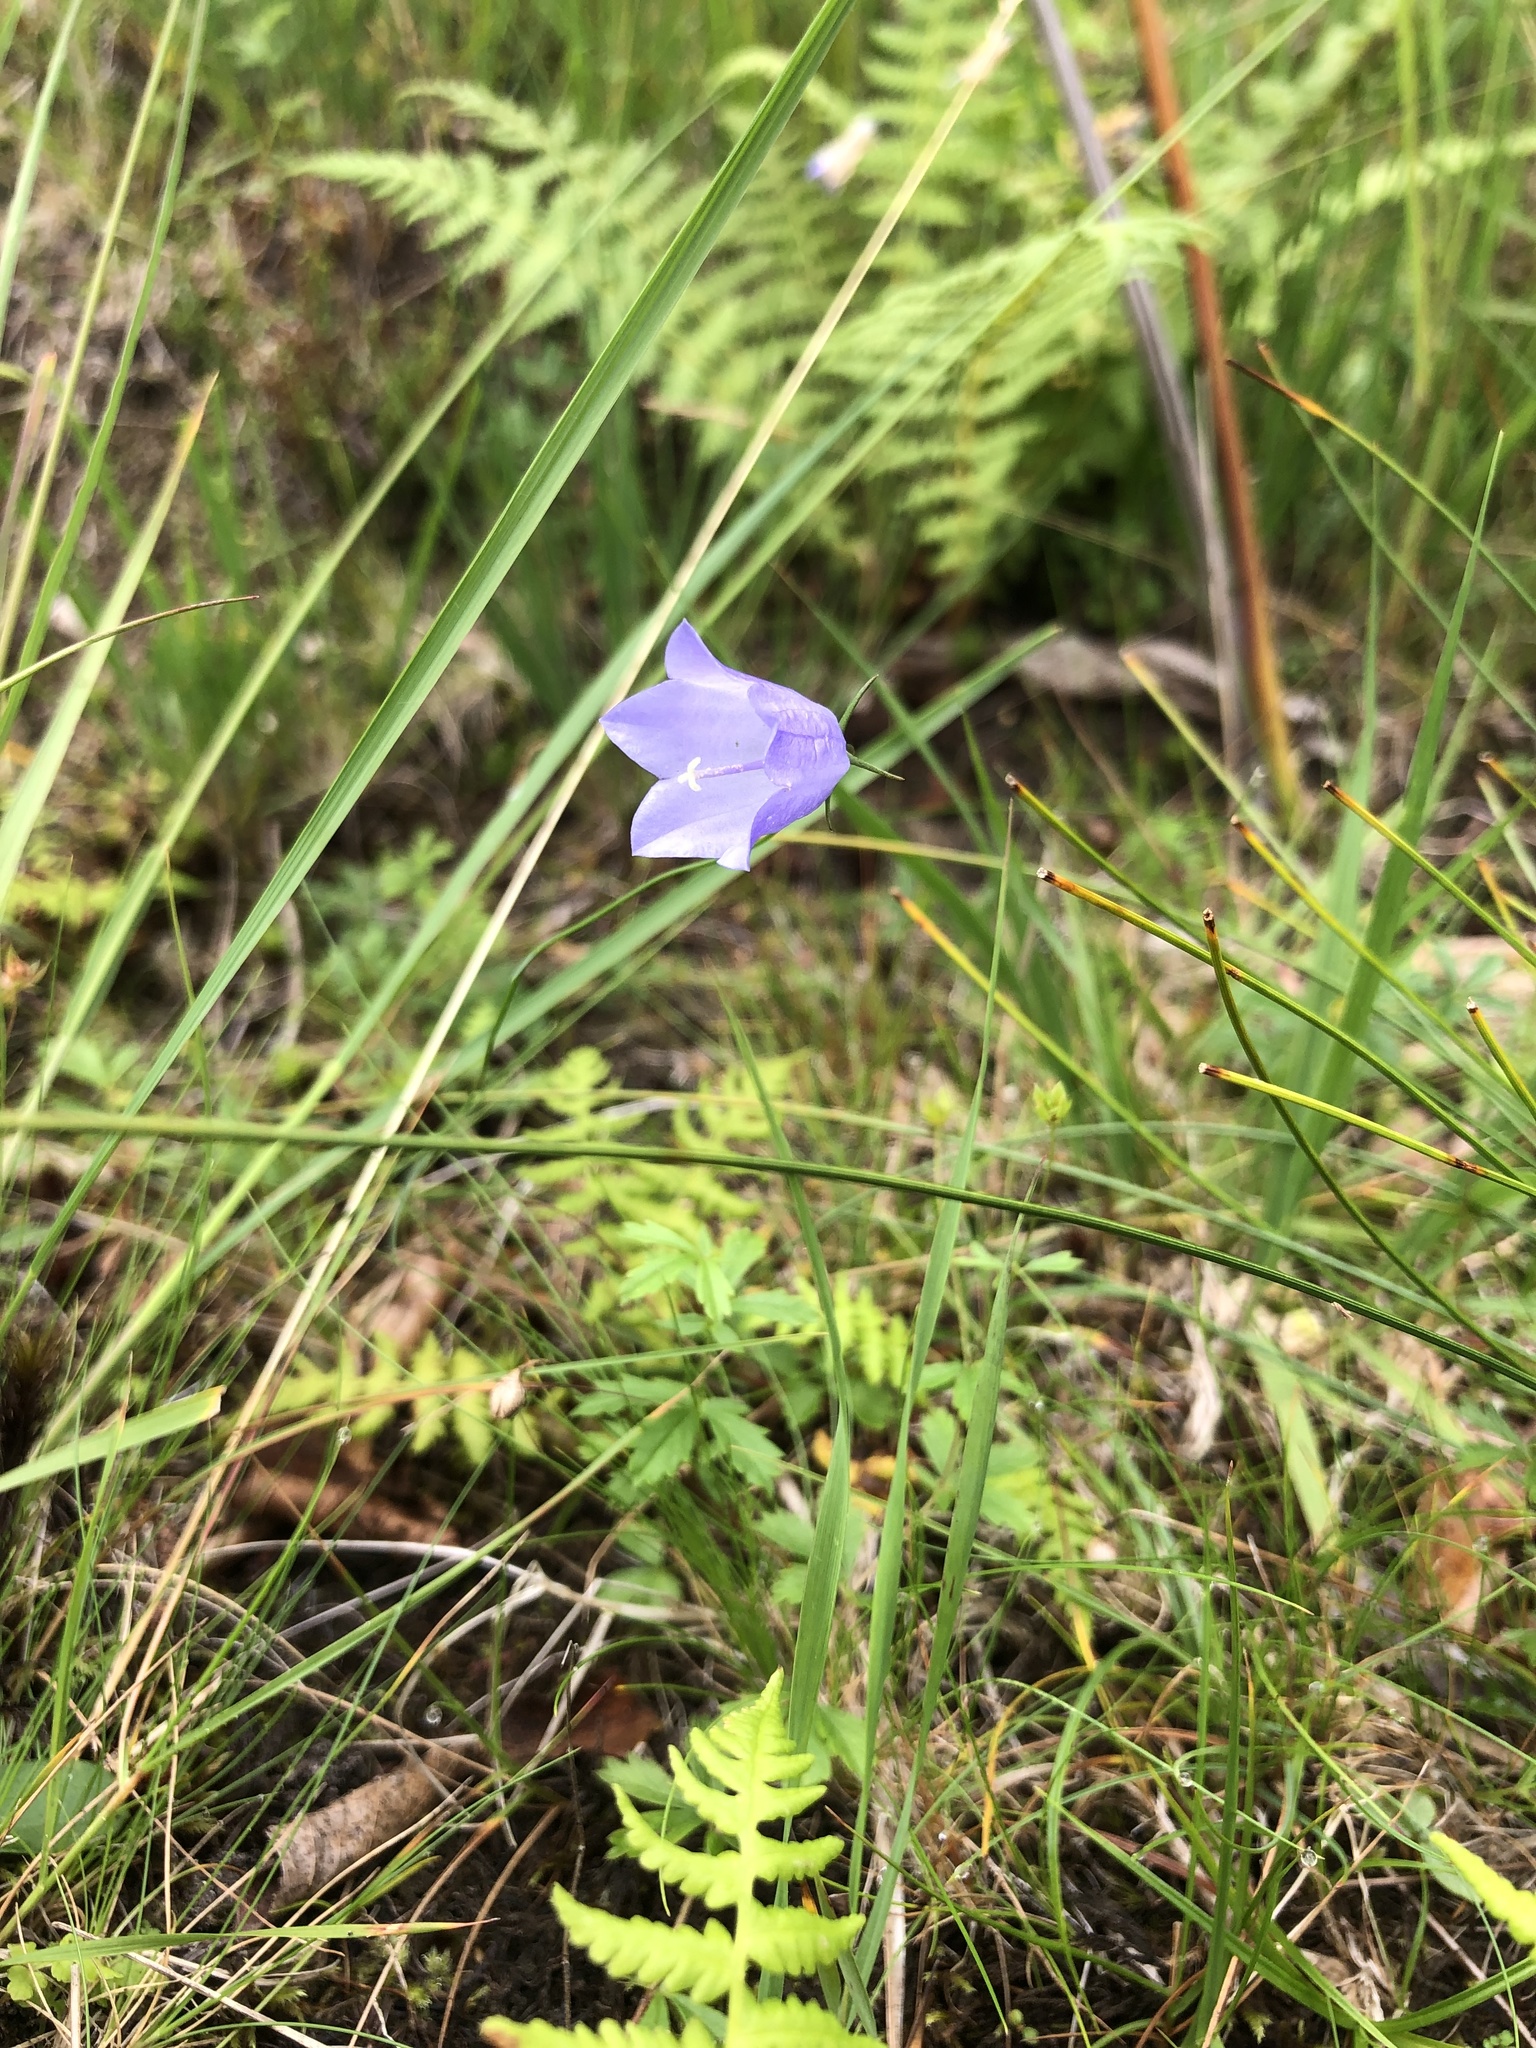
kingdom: Plantae
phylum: Tracheophyta
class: Magnoliopsida
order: Asterales
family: Campanulaceae
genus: Campanula
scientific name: Campanula rotundifolia
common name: Harebell
